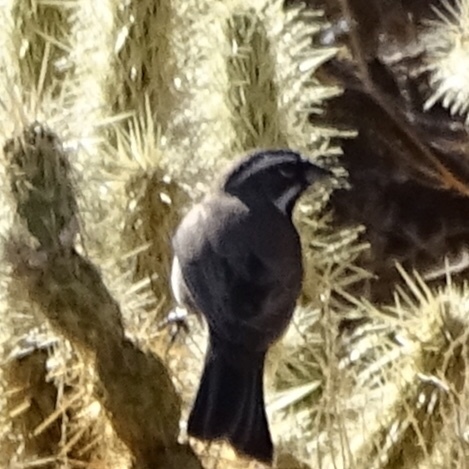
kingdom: Animalia
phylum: Chordata
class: Aves
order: Passeriformes
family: Passerellidae
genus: Amphispiza
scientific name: Amphispiza bilineata
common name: Black-throated sparrow
